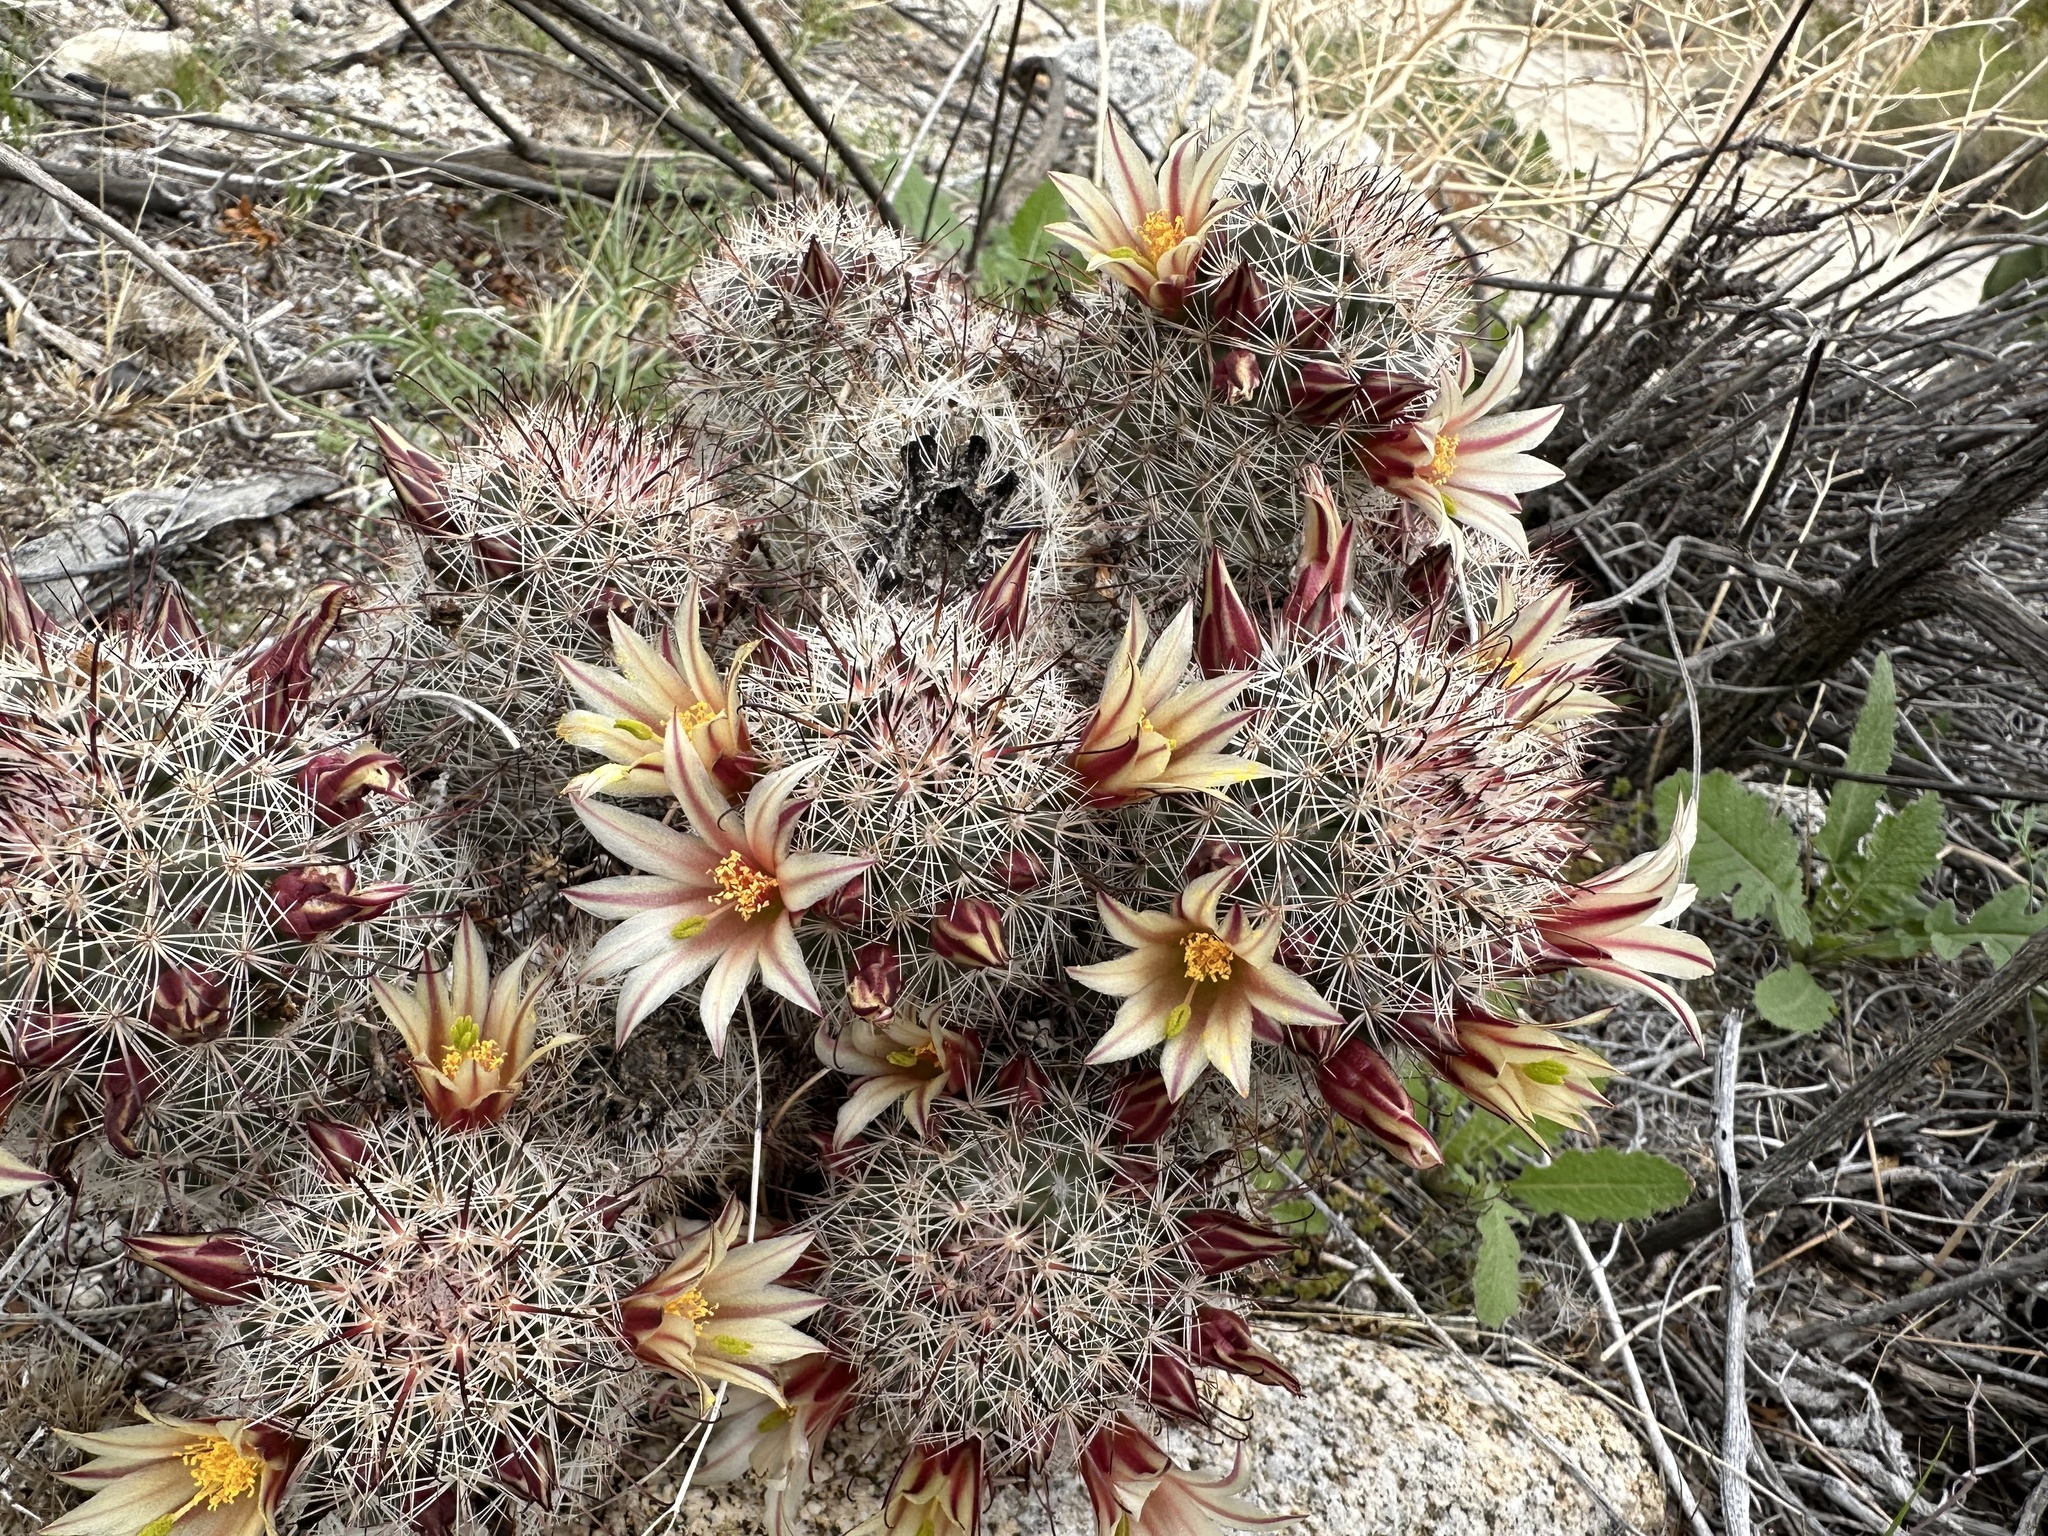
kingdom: Plantae
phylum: Tracheophyta
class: Magnoliopsida
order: Caryophyllales
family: Cactaceae
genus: Cochemiea
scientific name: Cochemiea dioica
